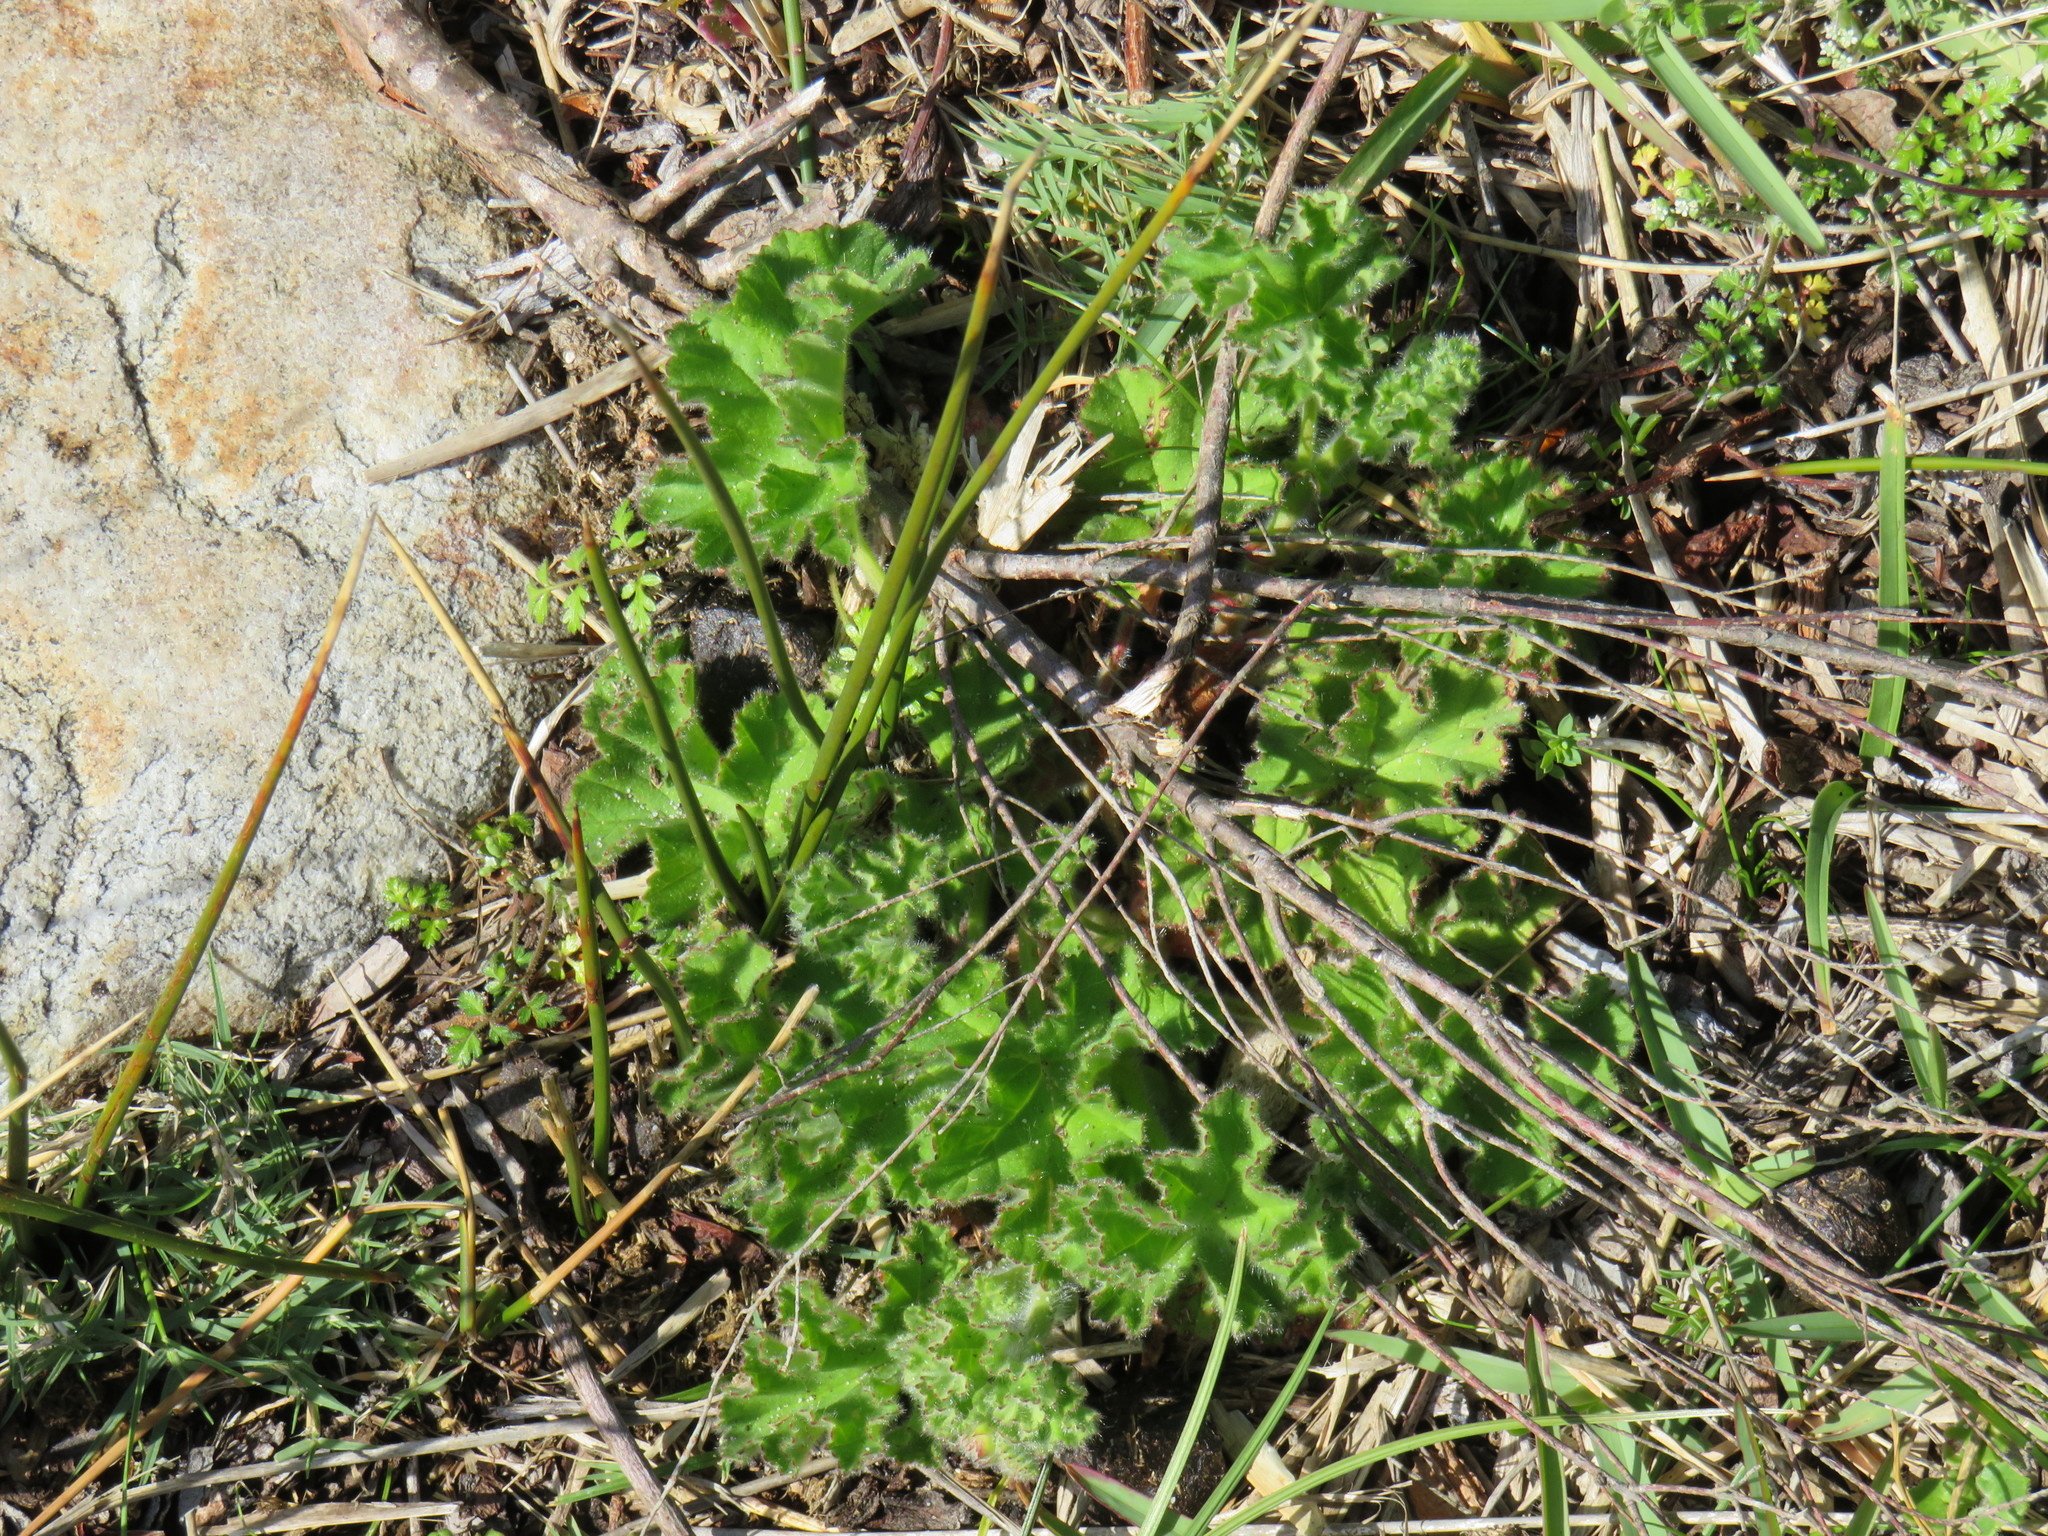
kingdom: Plantae
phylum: Tracheophyta
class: Magnoliopsida
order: Geraniales
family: Geraniaceae
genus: Pelargonium
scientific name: Pelargonium capitatum
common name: Rose scented geranium
